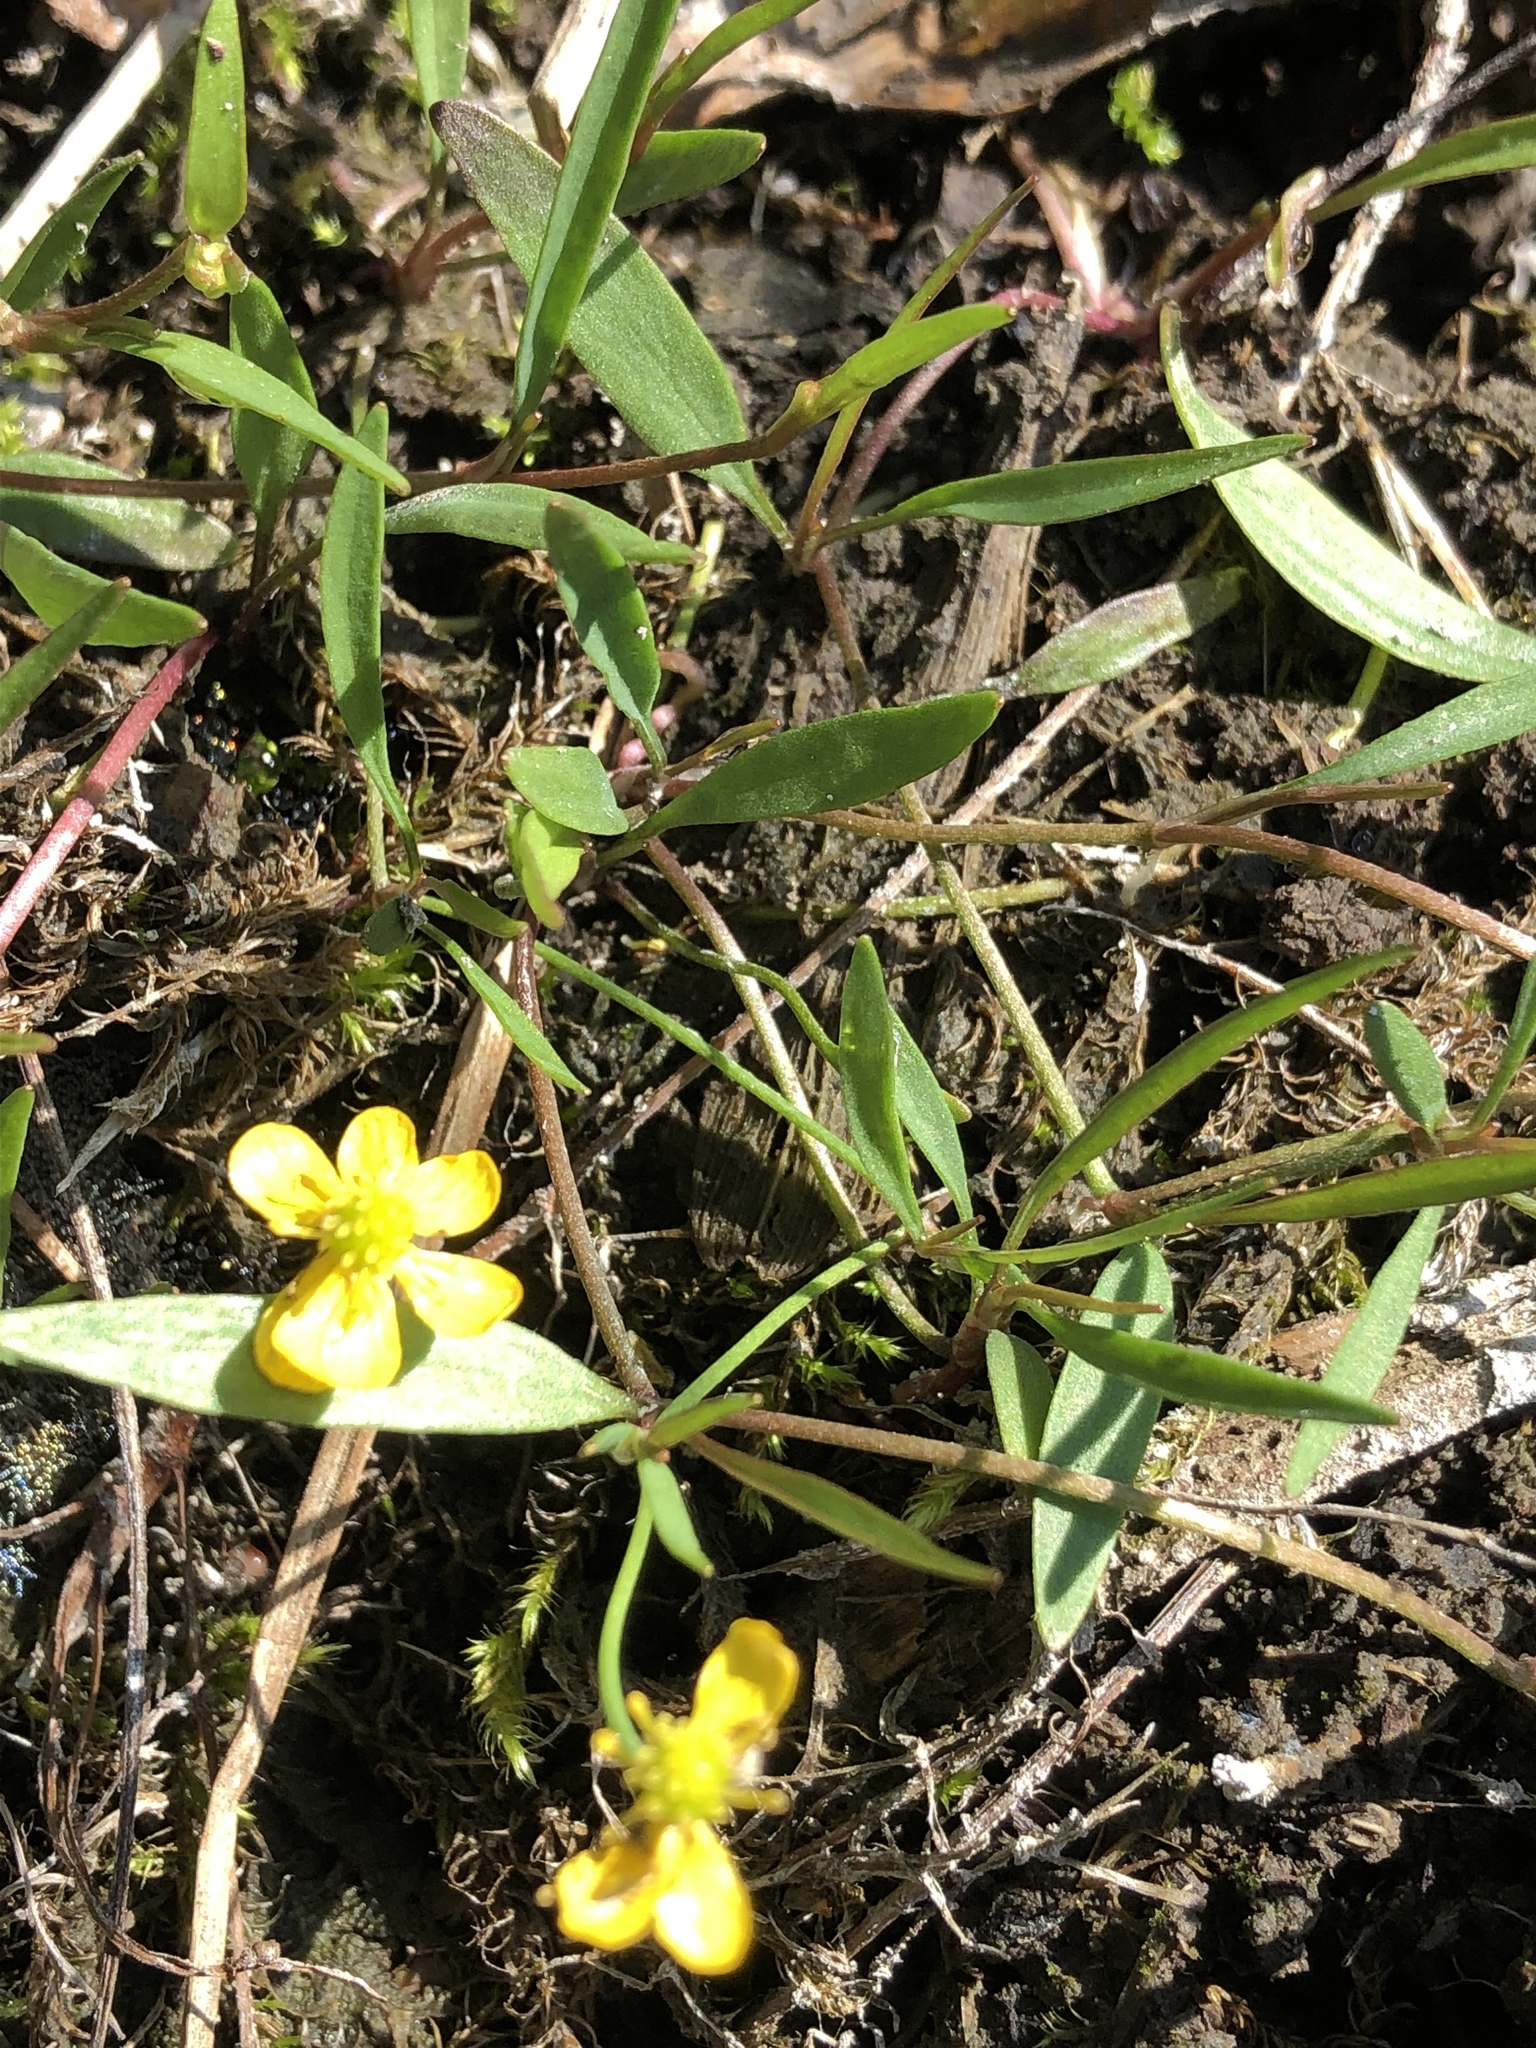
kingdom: Plantae
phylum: Tracheophyta
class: Magnoliopsida
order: Ranunculales
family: Ranunculaceae
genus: Ranunculus
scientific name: Ranunculus flammula
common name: Lesser spearwort
